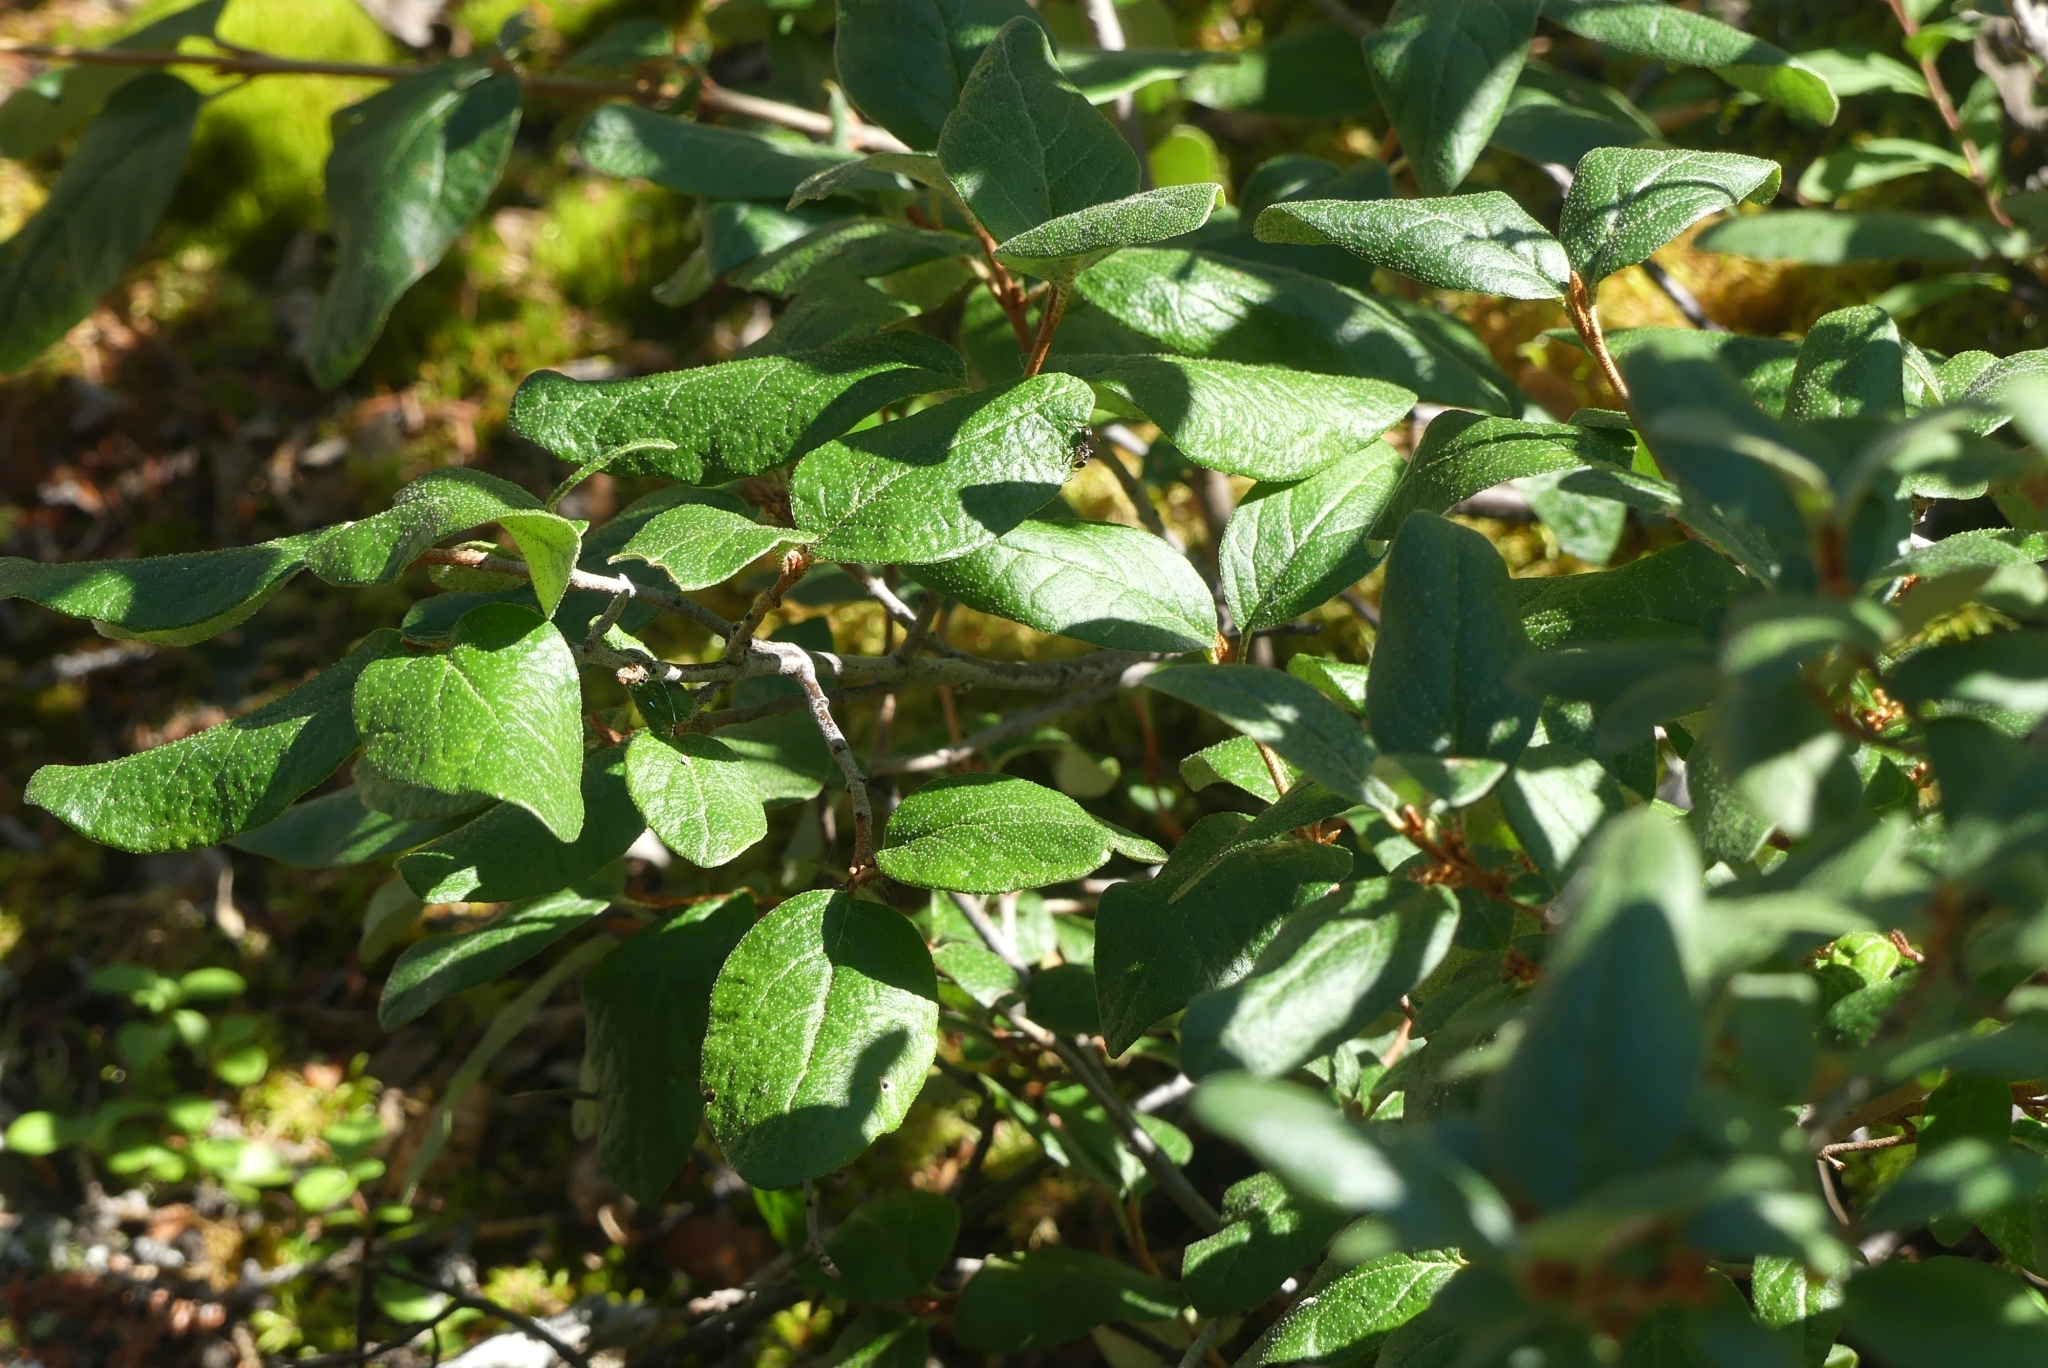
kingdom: Plantae
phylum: Tracheophyta
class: Magnoliopsida
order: Rosales
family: Elaeagnaceae
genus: Shepherdia
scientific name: Shepherdia canadensis
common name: Soapberry
